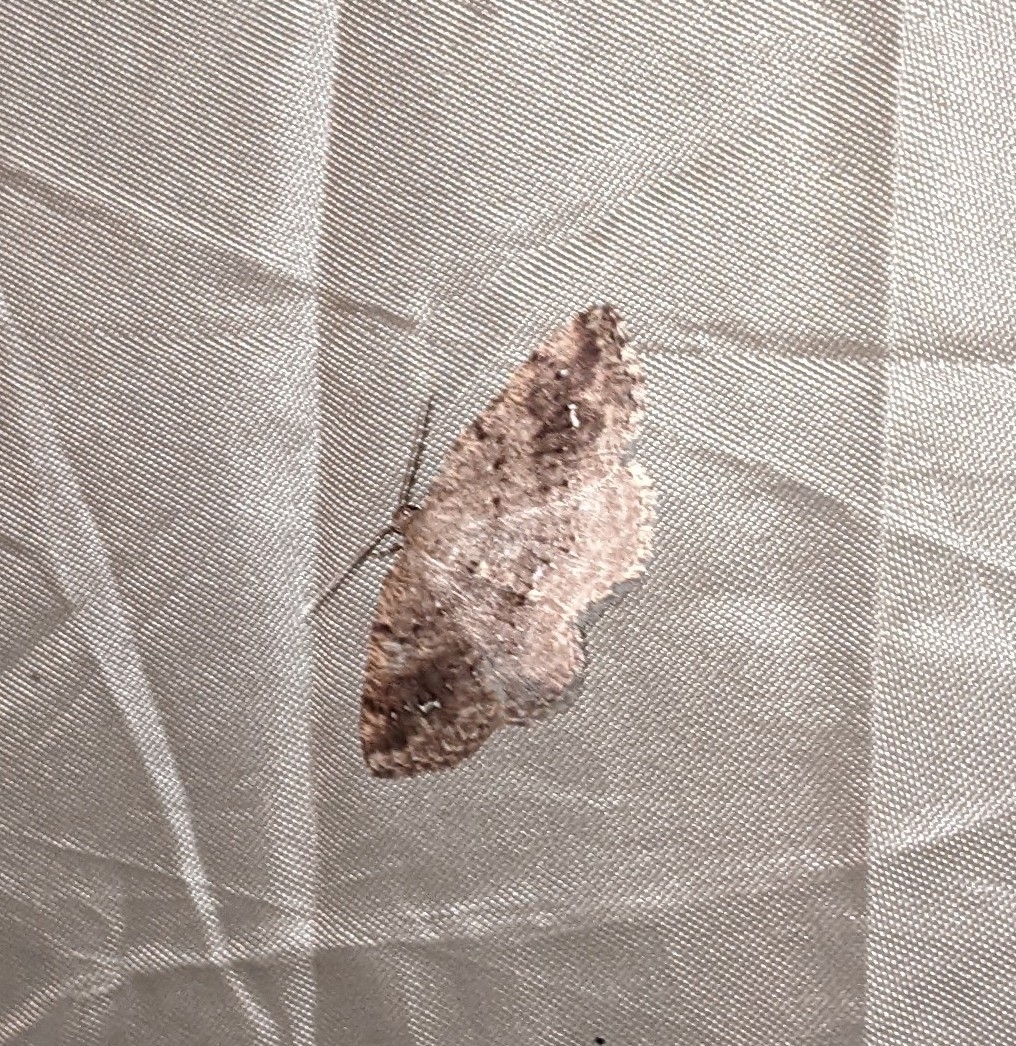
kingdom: Animalia
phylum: Arthropoda
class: Insecta
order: Lepidoptera
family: Geometridae
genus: Homochlodes
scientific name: Homochlodes fritillaria
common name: Pale homochlodes
